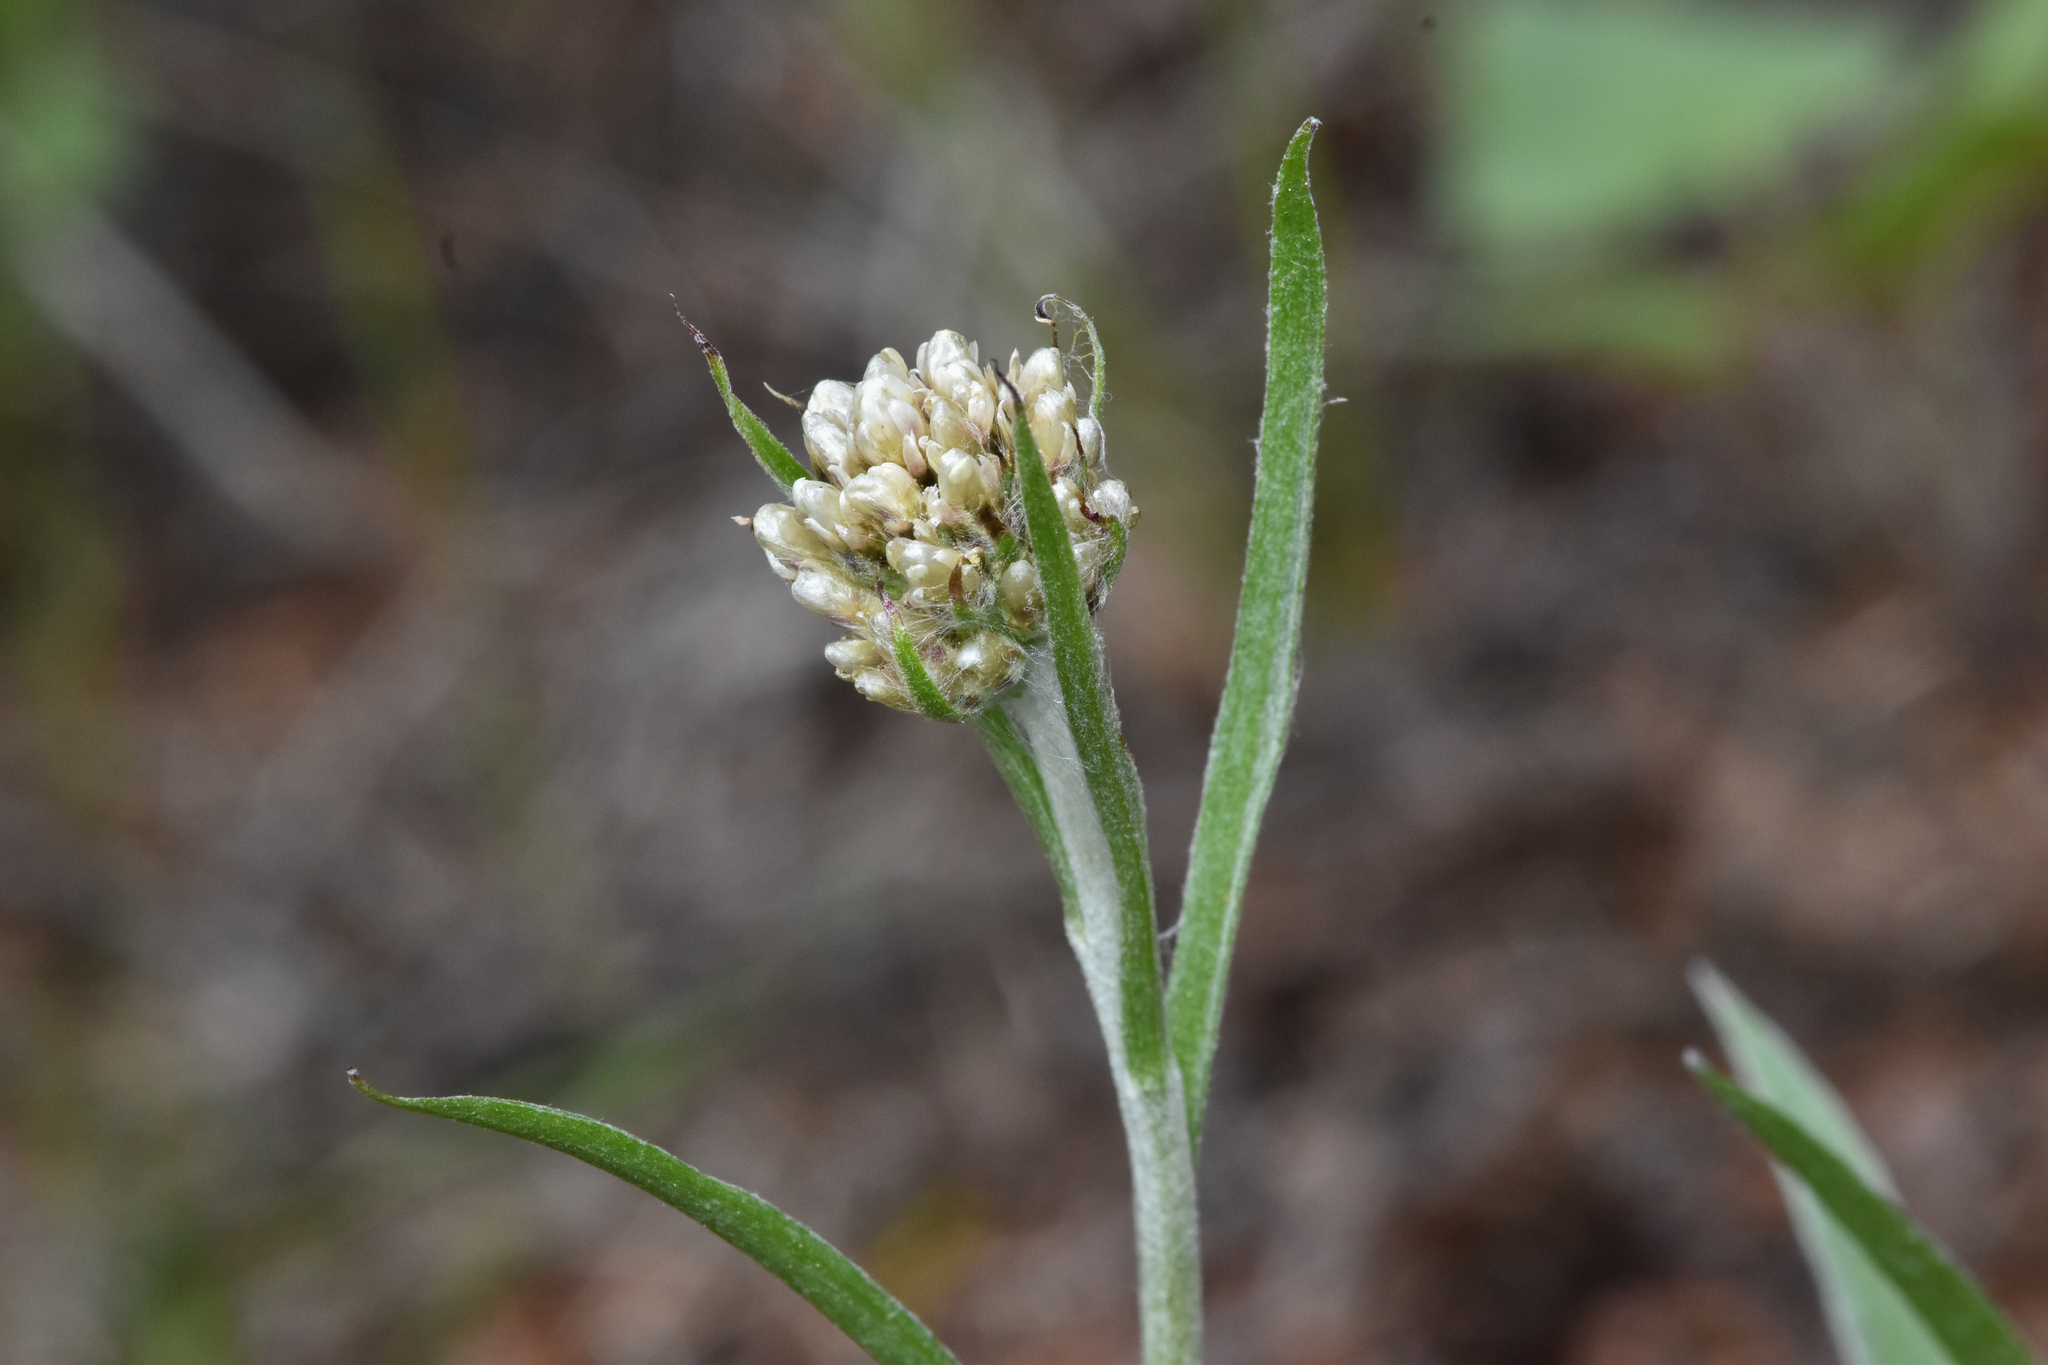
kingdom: Plantae
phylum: Tracheophyta
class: Magnoliopsida
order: Asterales
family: Asteraceae
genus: Antennaria
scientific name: Antennaria anaphaloides
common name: Tall pussytoes
